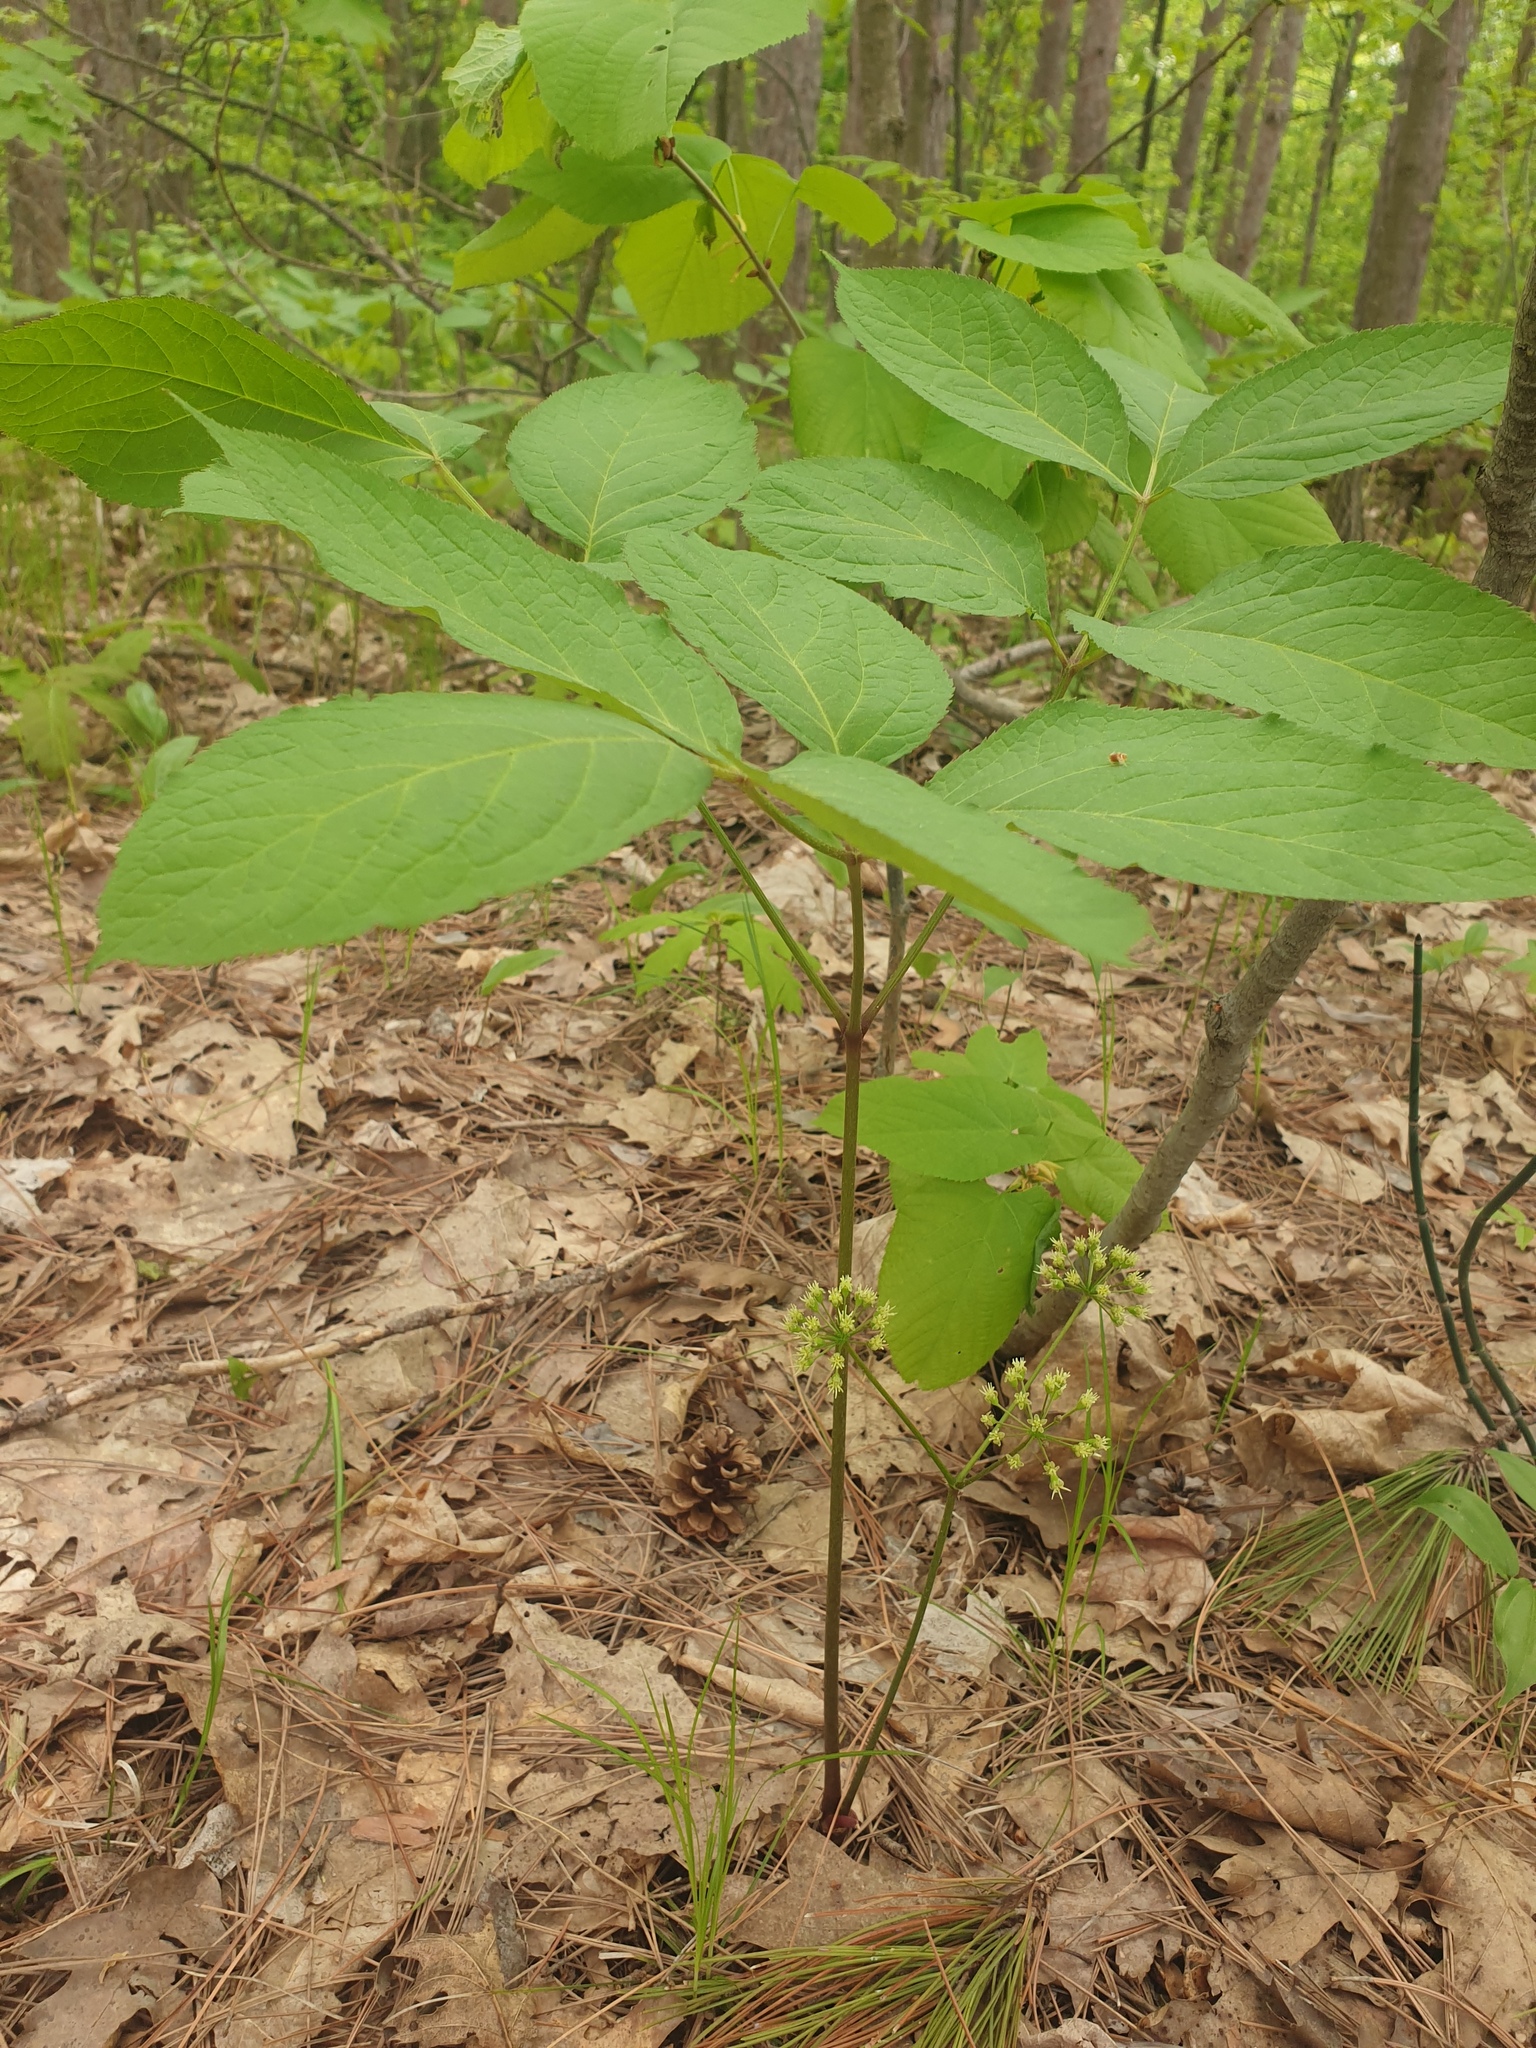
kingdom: Plantae
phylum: Tracheophyta
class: Magnoliopsida
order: Apiales
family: Araliaceae
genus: Aralia
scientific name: Aralia nudicaulis
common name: Wild sarsaparilla
